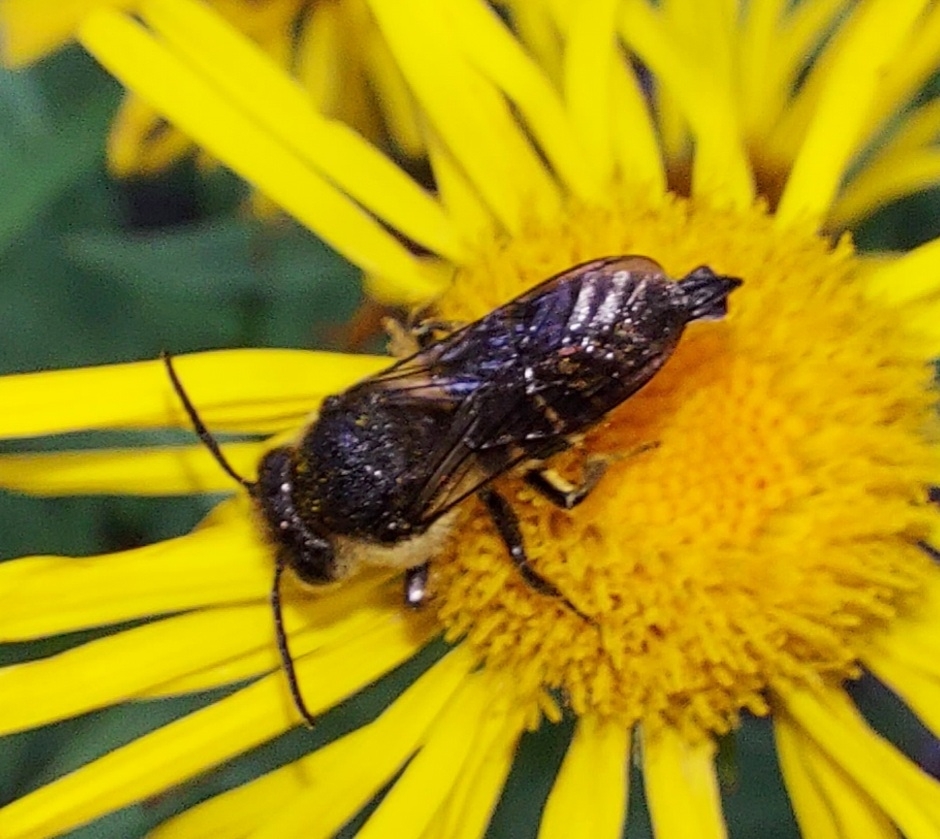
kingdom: Animalia
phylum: Arthropoda
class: Insecta
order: Hymenoptera
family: Megachilidae
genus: Coelioxys
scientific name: Coelioxys alatus
